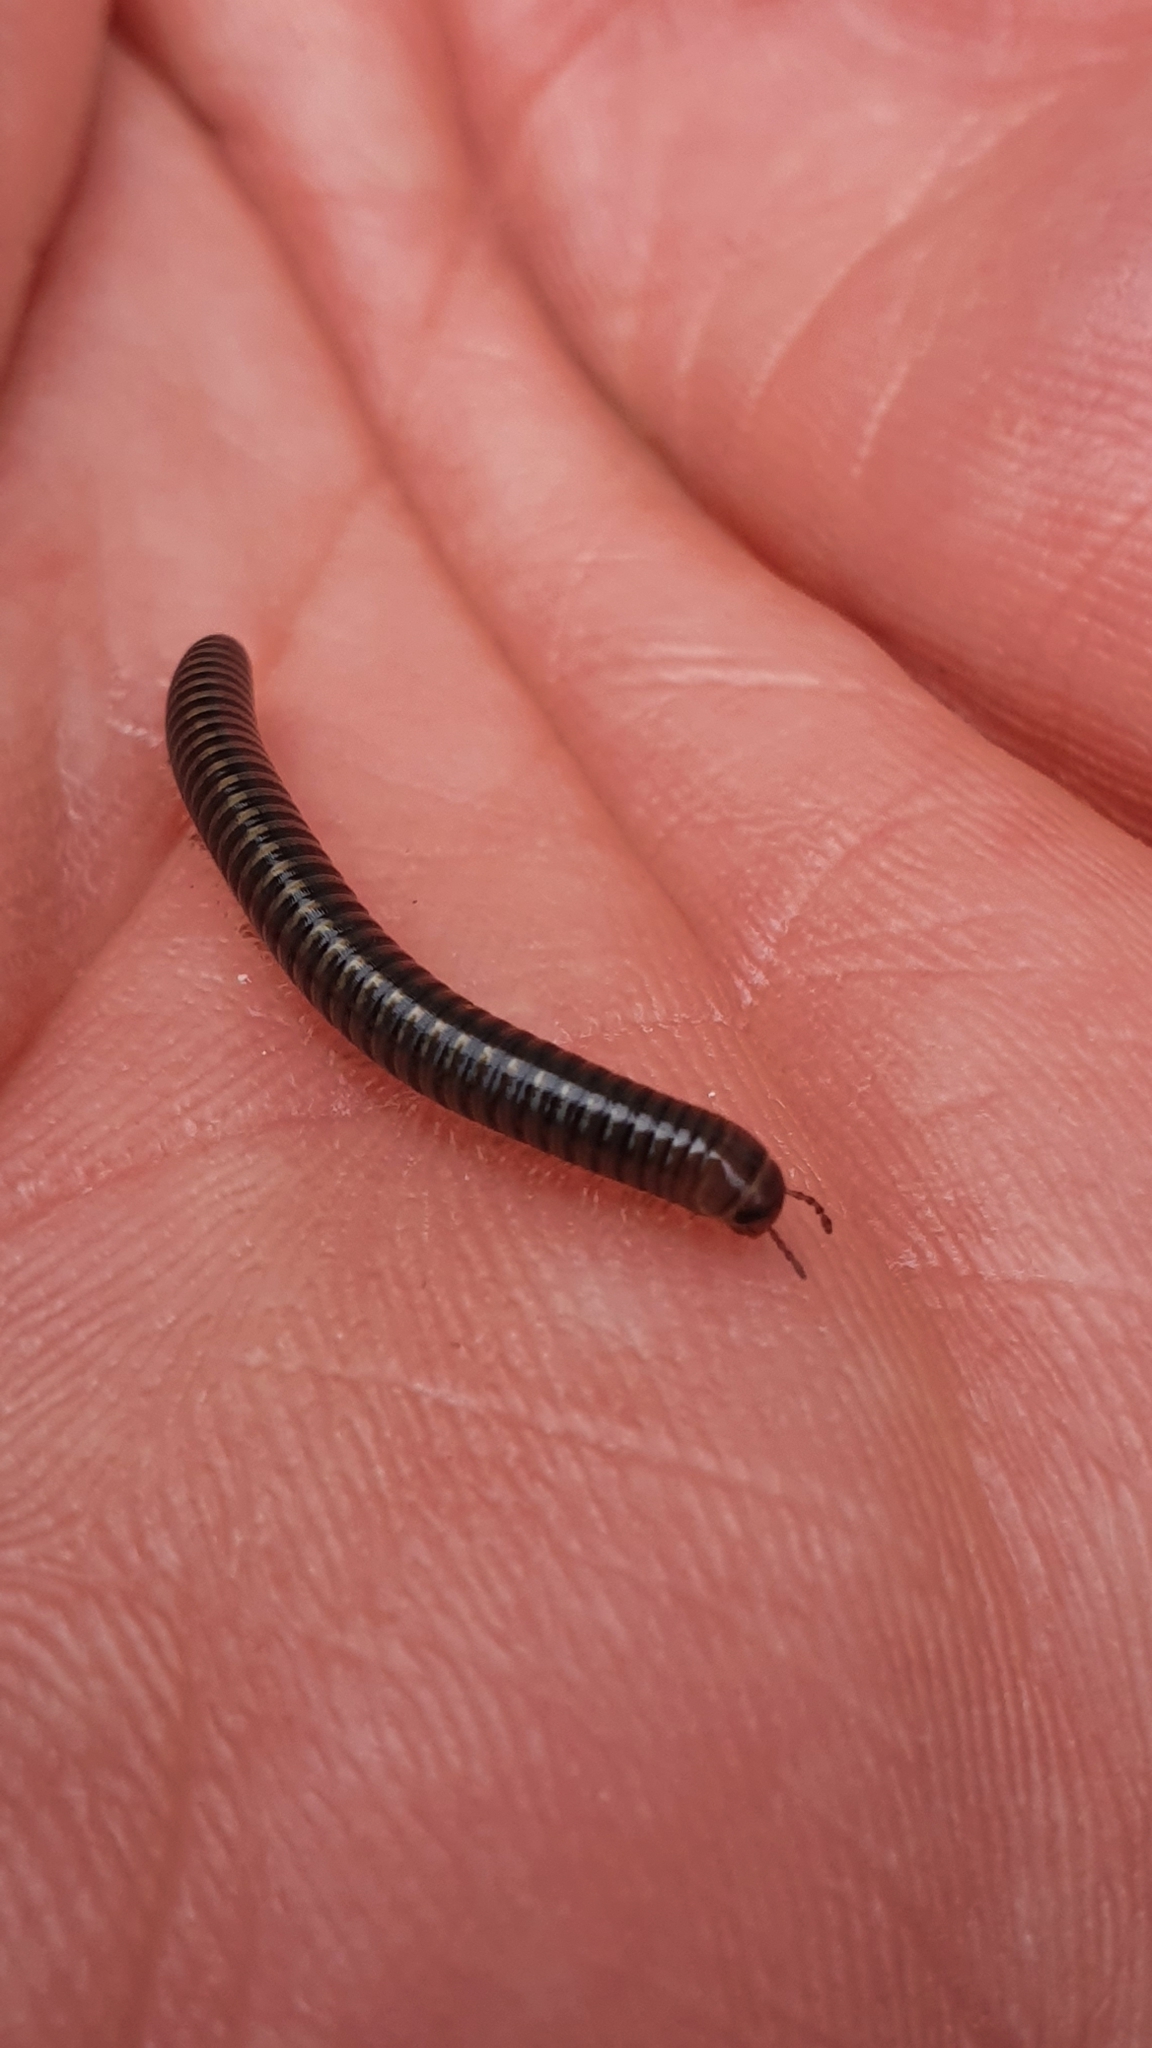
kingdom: Animalia
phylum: Arthropoda
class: Diplopoda
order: Julida
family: Julidae
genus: Cylindroiulus
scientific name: Cylindroiulus caeruleocinctus
